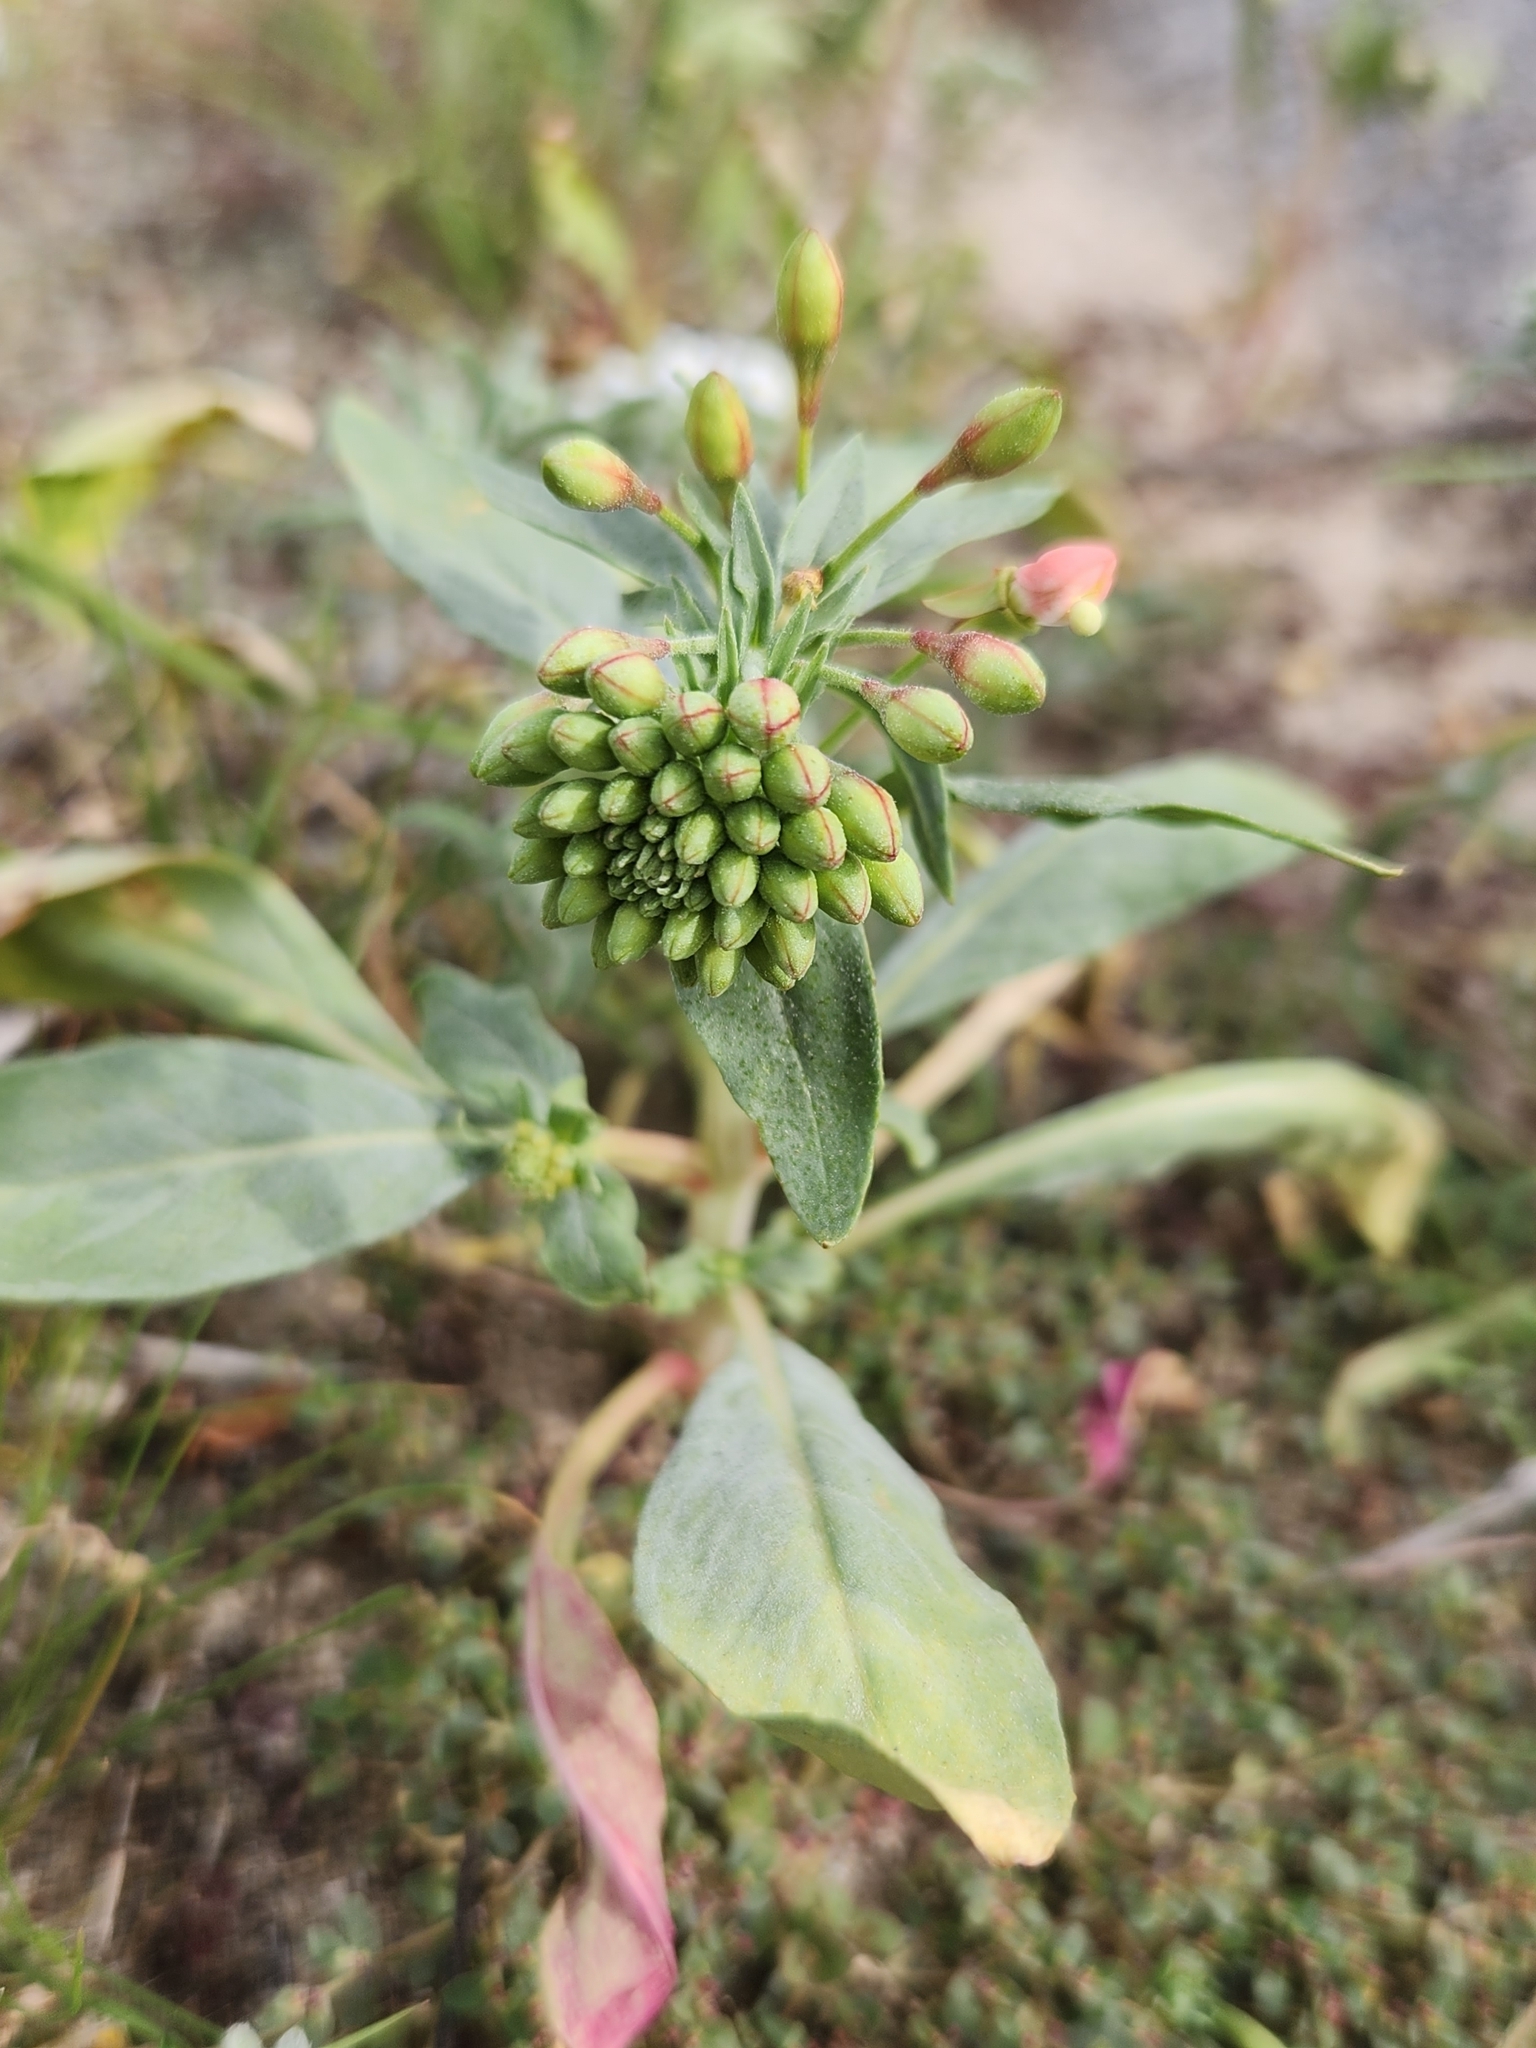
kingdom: Plantae
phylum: Tracheophyta
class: Magnoliopsida
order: Myrtales
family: Onagraceae
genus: Eremothera
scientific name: Eremothera boothii
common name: Booth's evening primrose
